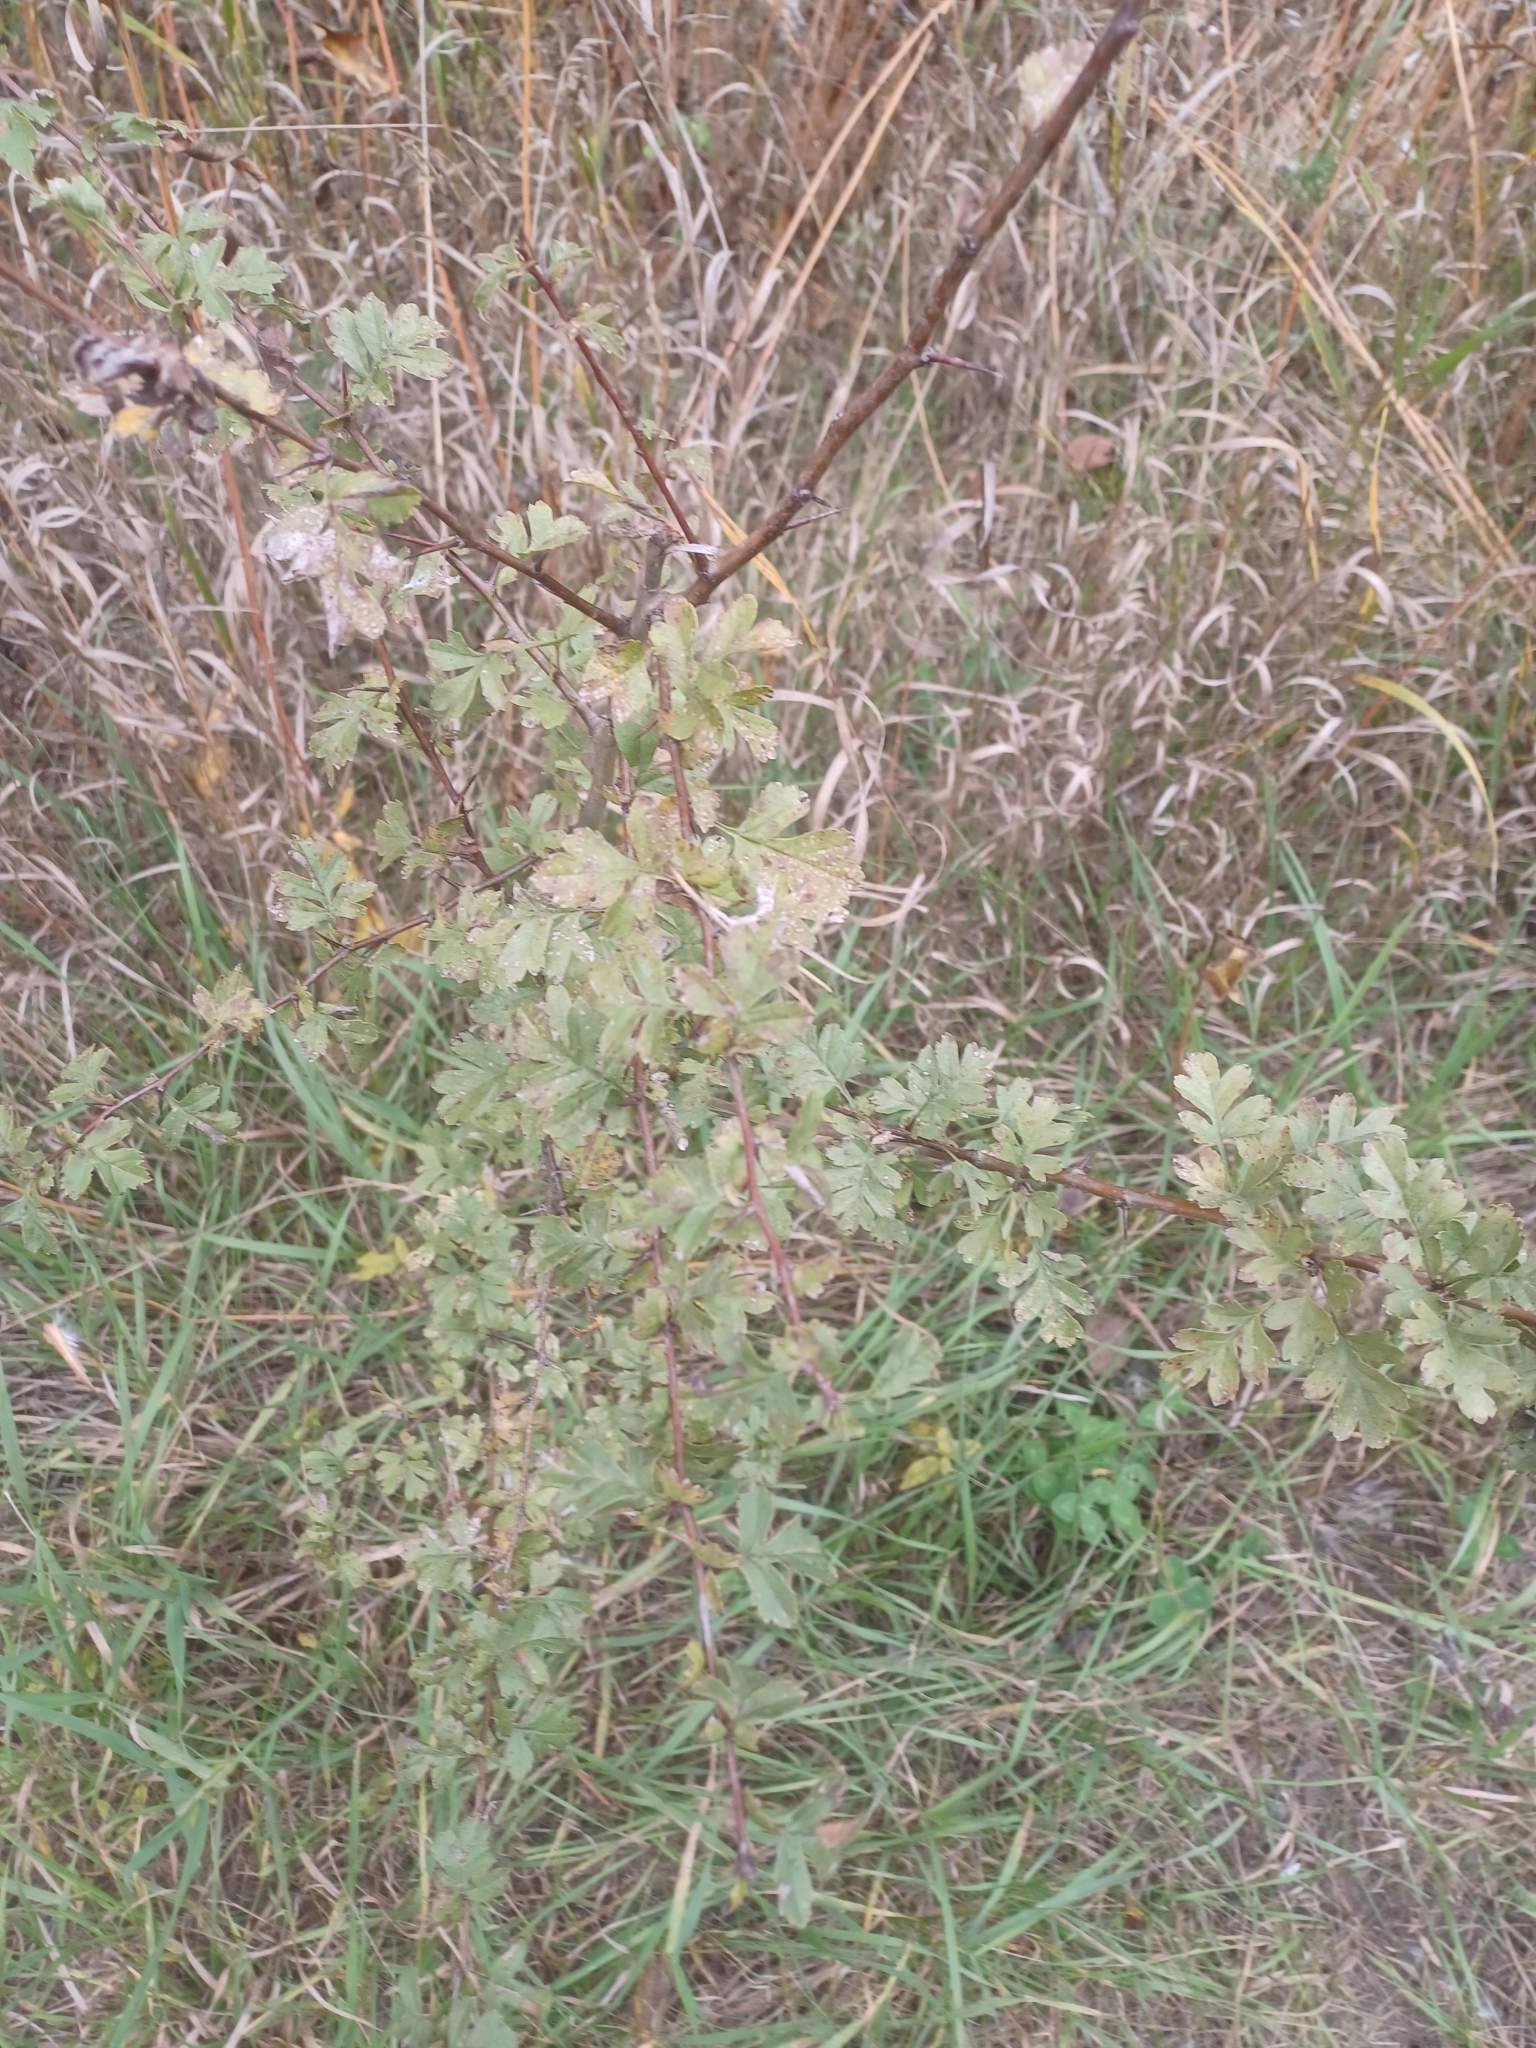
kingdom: Plantae
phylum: Tracheophyta
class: Magnoliopsida
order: Rosales
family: Rosaceae
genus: Crataegus
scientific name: Crataegus monogyna
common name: Hawthorn
